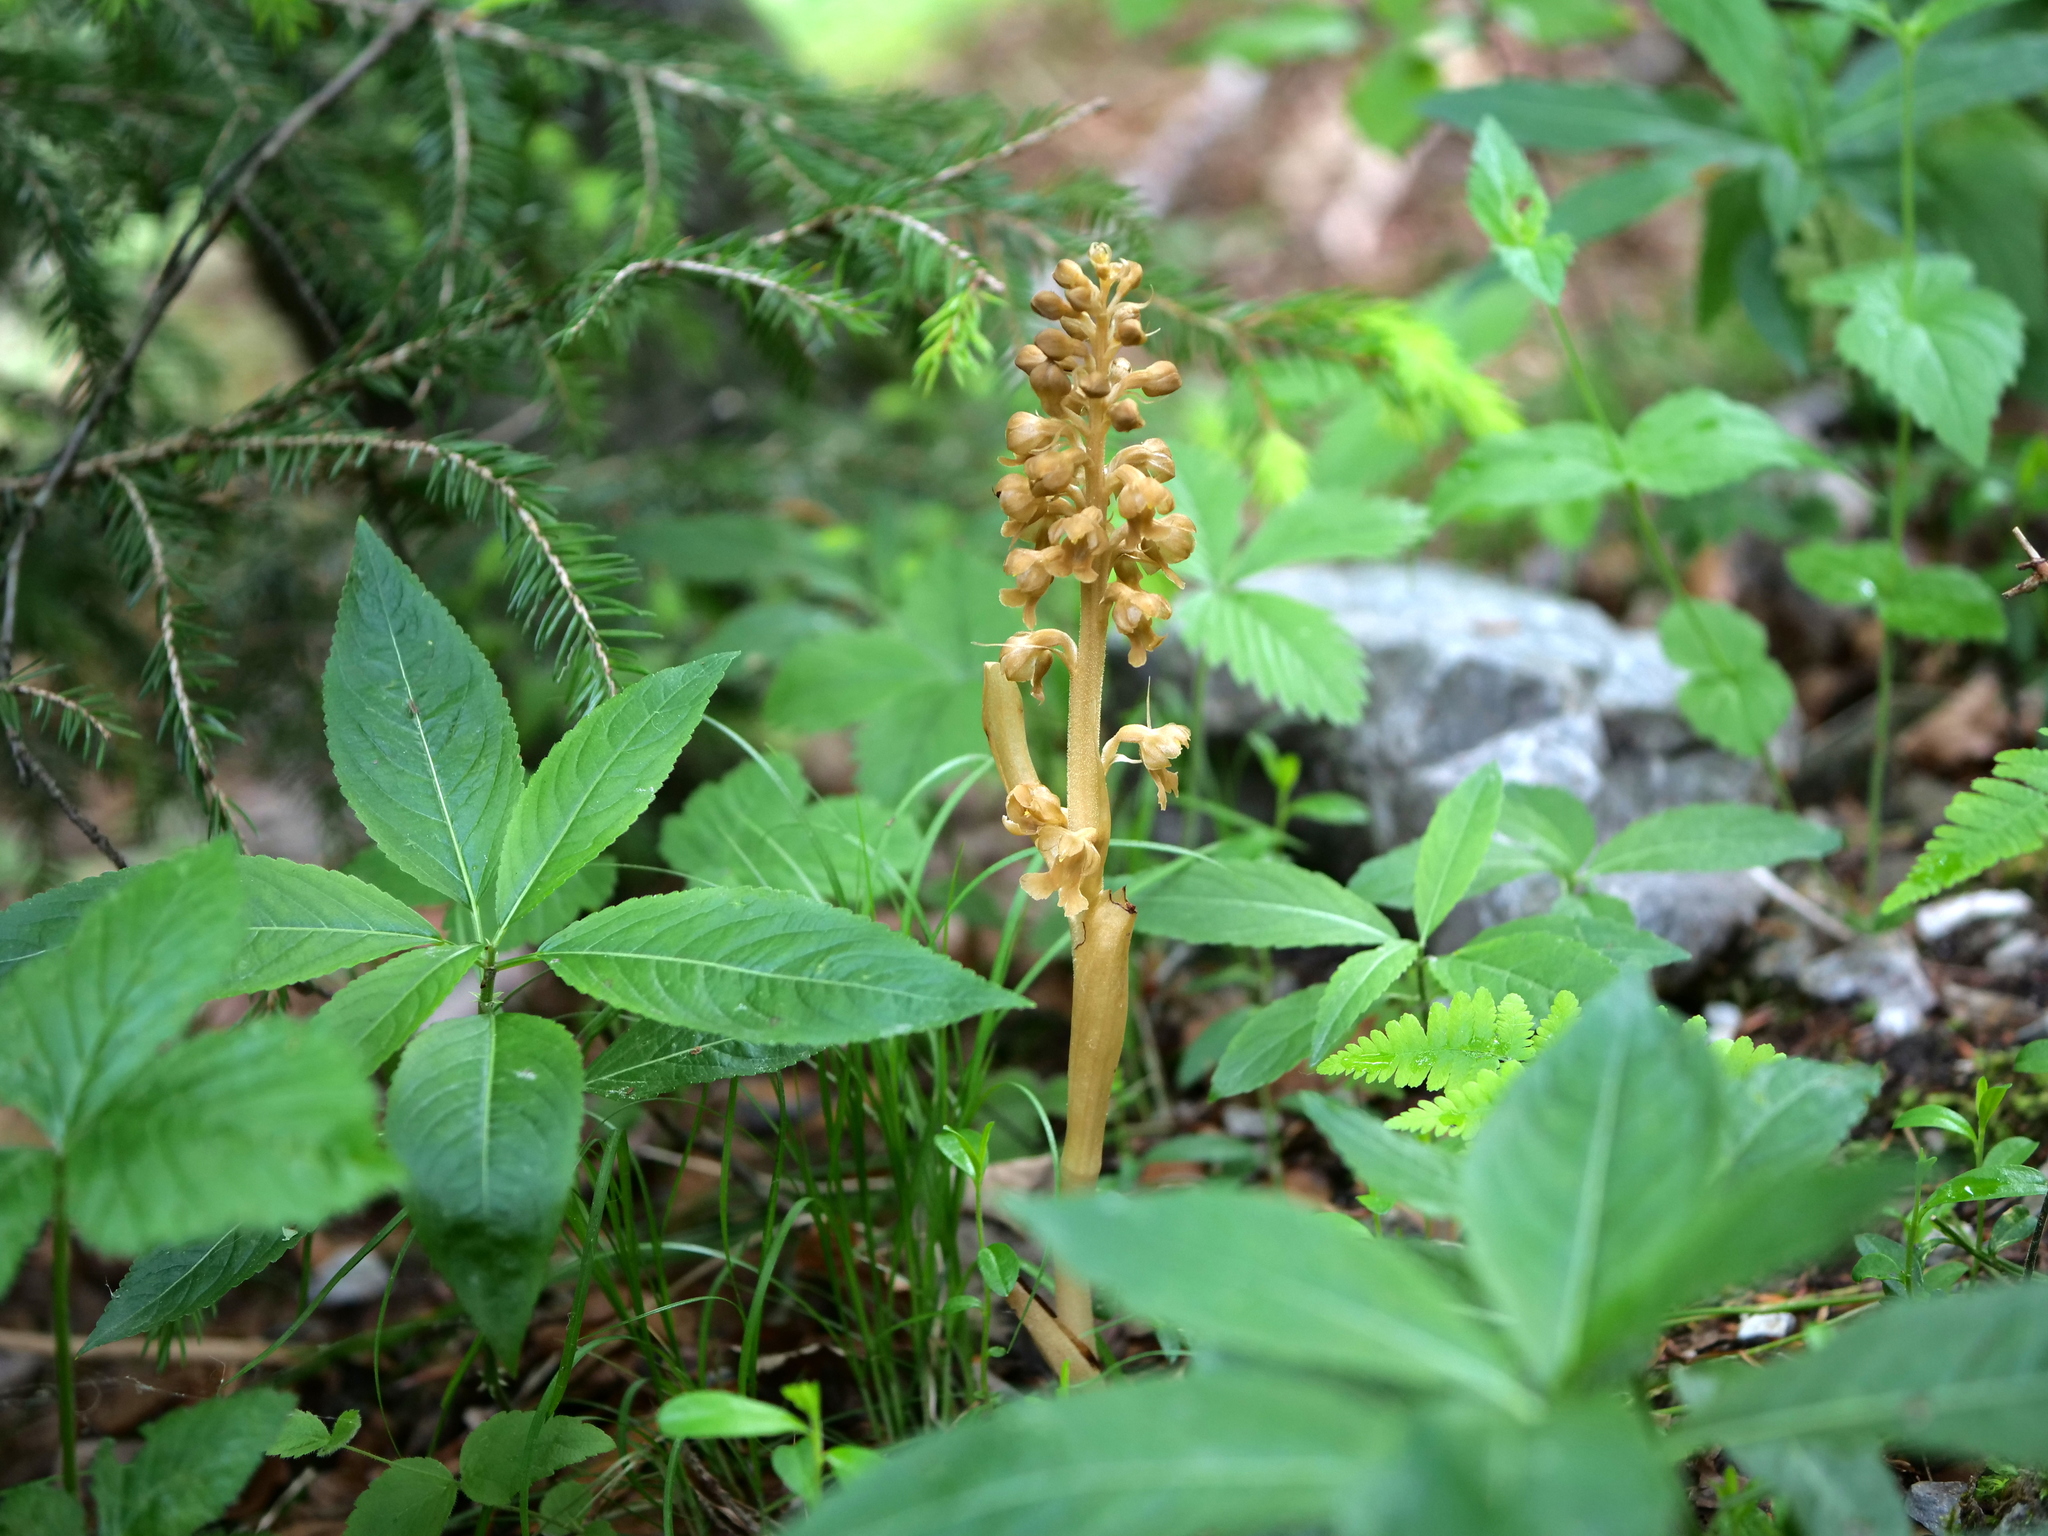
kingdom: Plantae
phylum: Tracheophyta
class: Liliopsida
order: Asparagales
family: Orchidaceae
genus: Neottia
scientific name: Neottia nidus-avis
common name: Bird's-nest orchid
